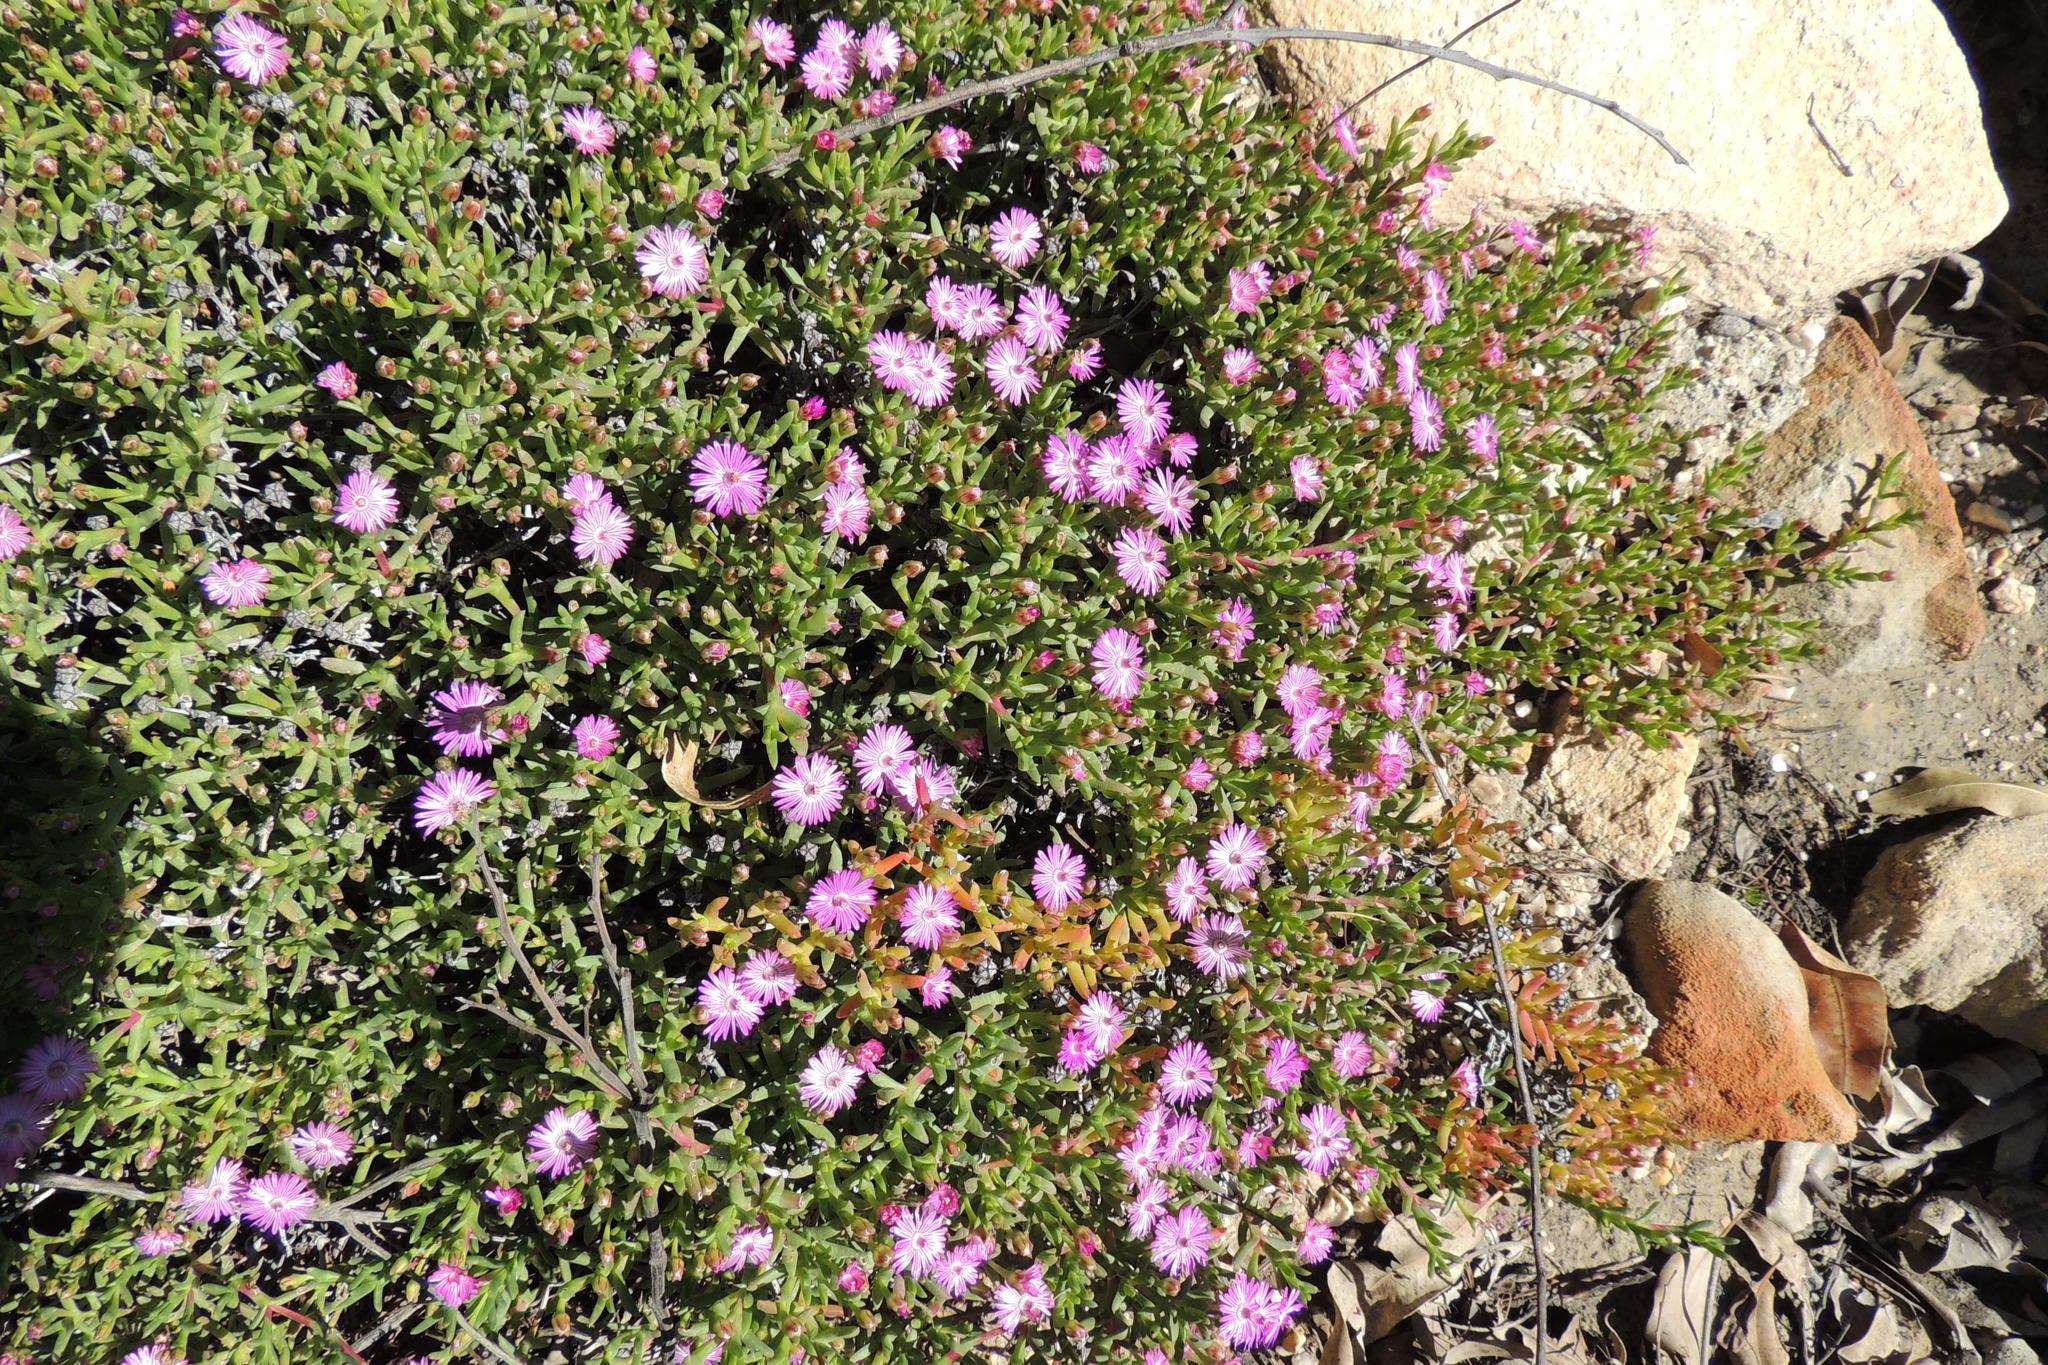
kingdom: Plantae
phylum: Tracheophyta
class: Magnoliopsida
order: Caryophyllales
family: Aizoaceae
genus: Ruschia
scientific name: Ruschia lineolata
